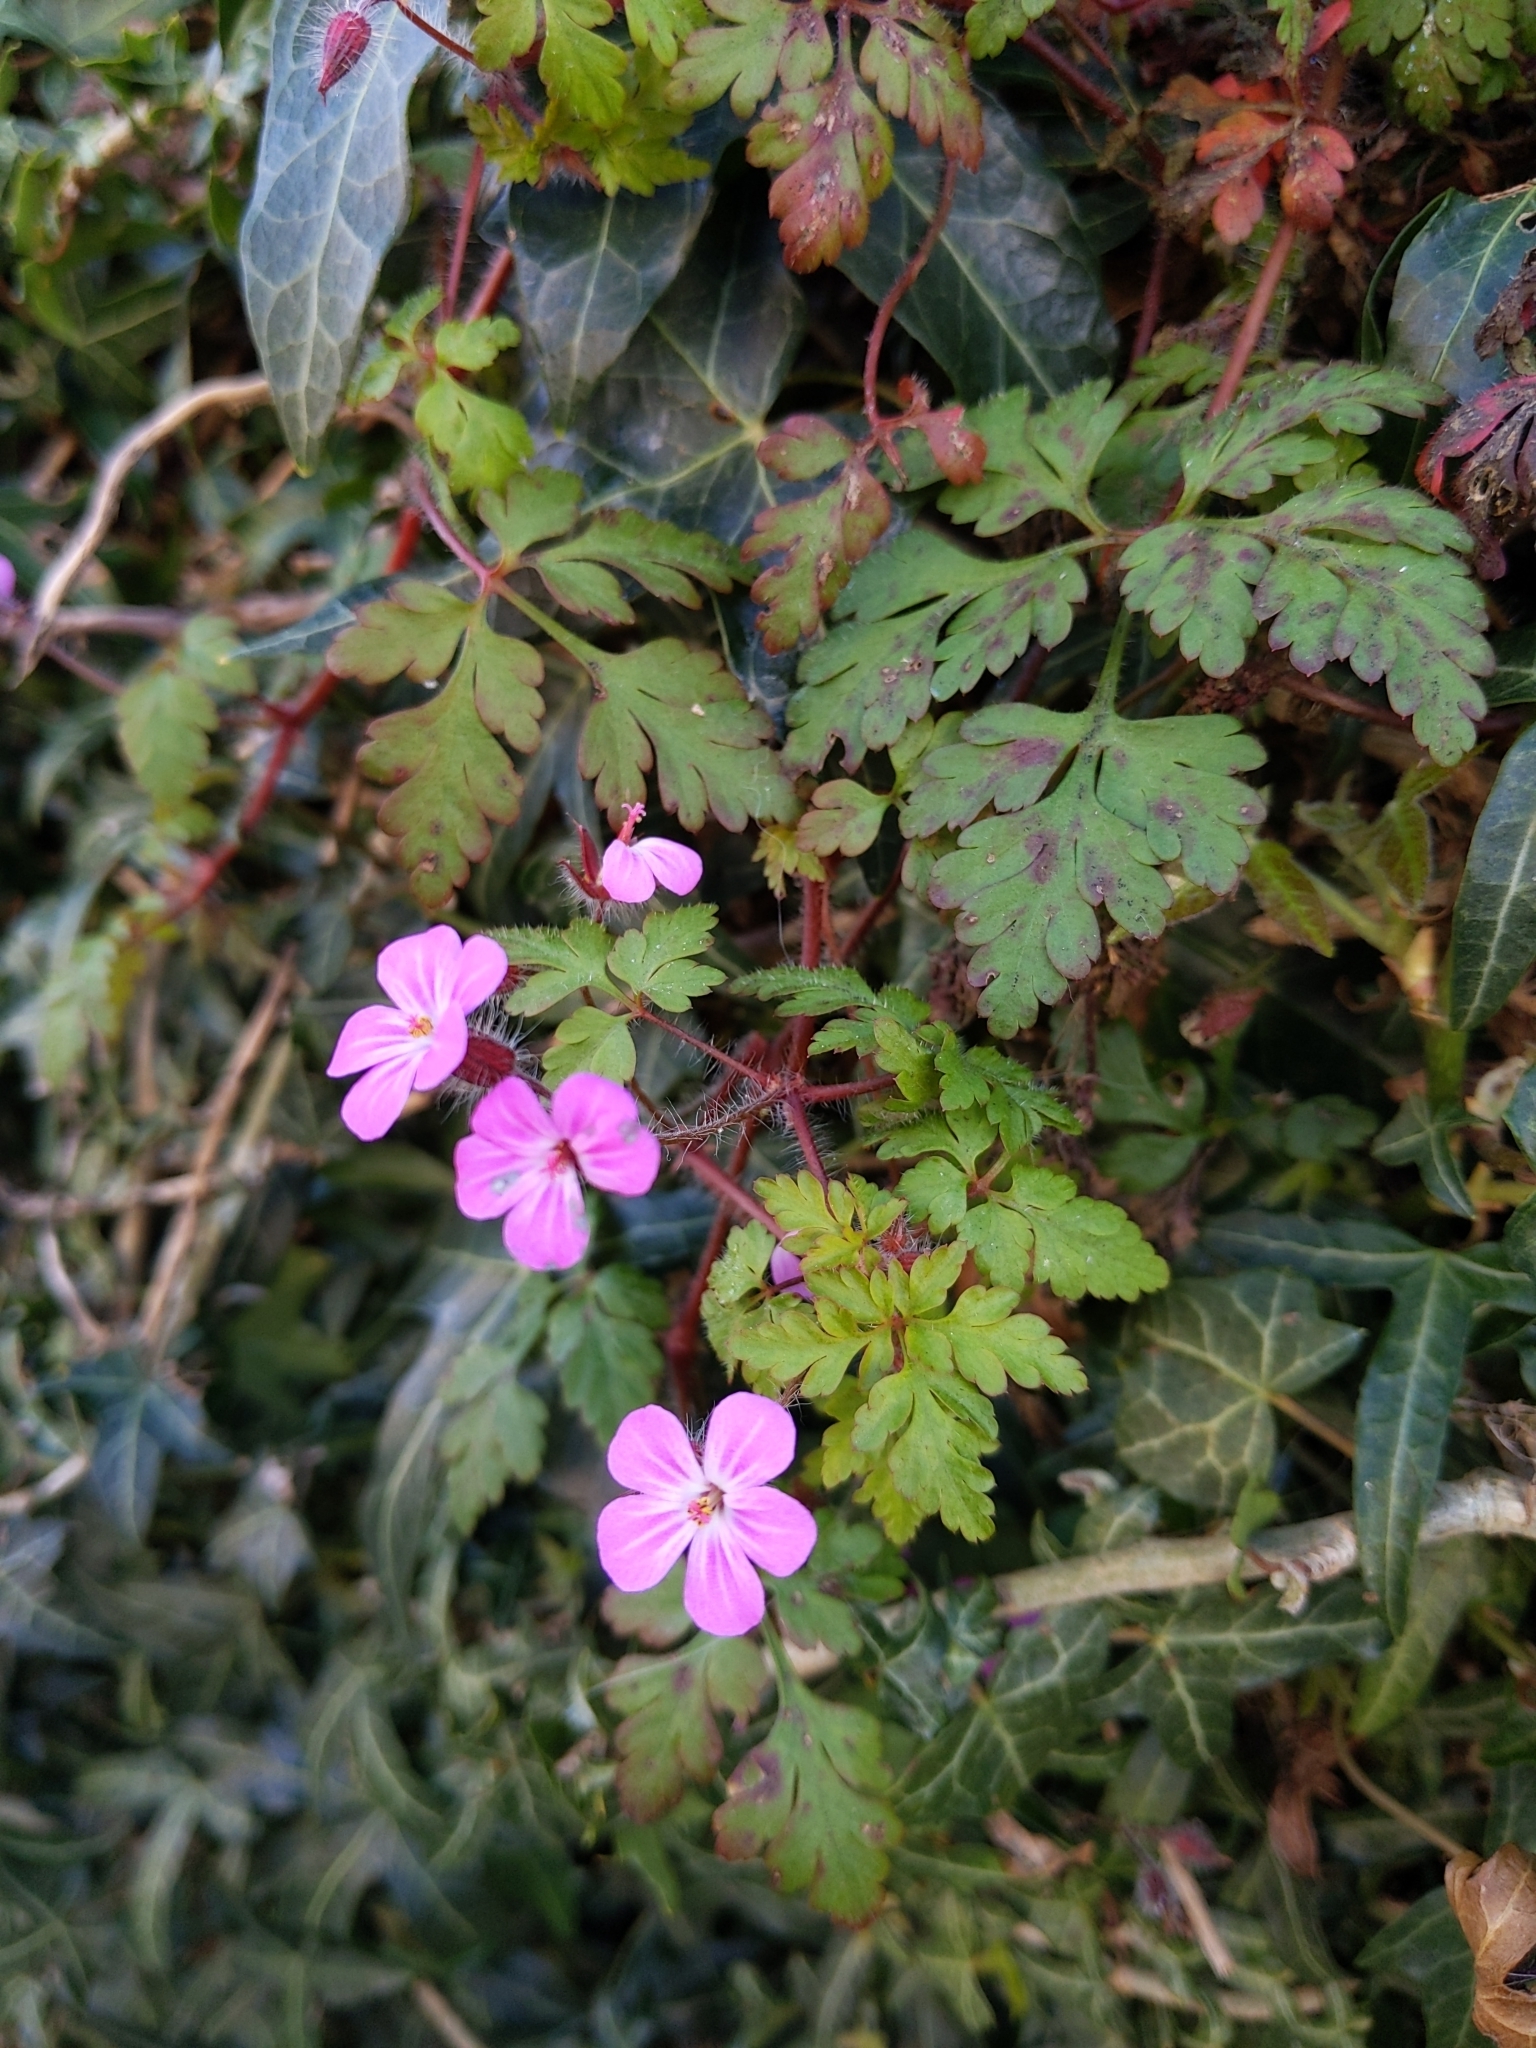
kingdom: Plantae
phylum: Tracheophyta
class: Magnoliopsida
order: Geraniales
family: Geraniaceae
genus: Geranium
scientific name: Geranium robertianum
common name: Herb-robert
